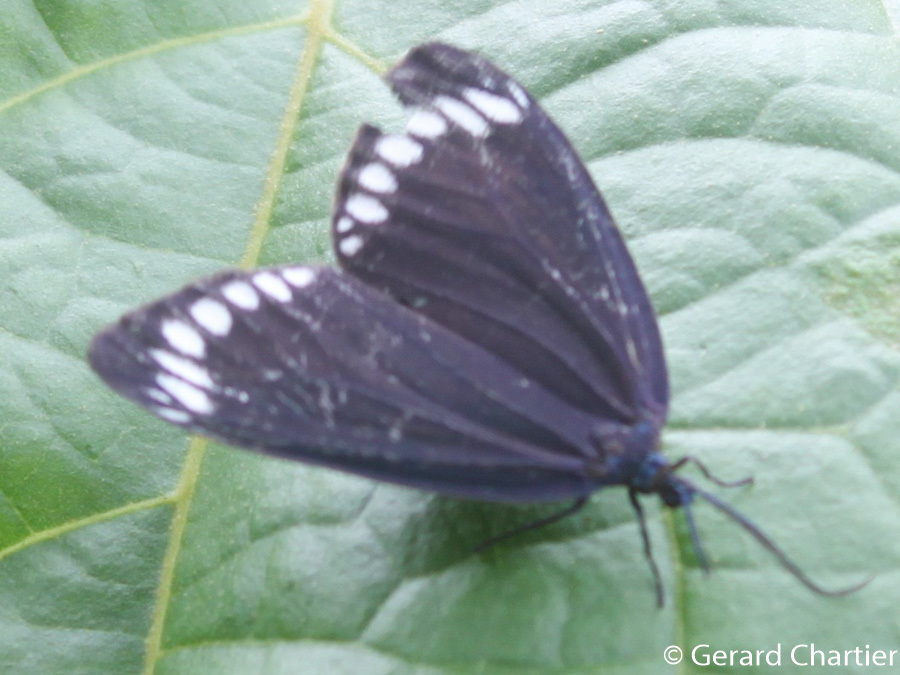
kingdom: Animalia
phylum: Arthropoda
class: Insecta
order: Lepidoptera
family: Zygaenidae
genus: Cyclosia
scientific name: Cyclosia panthona
